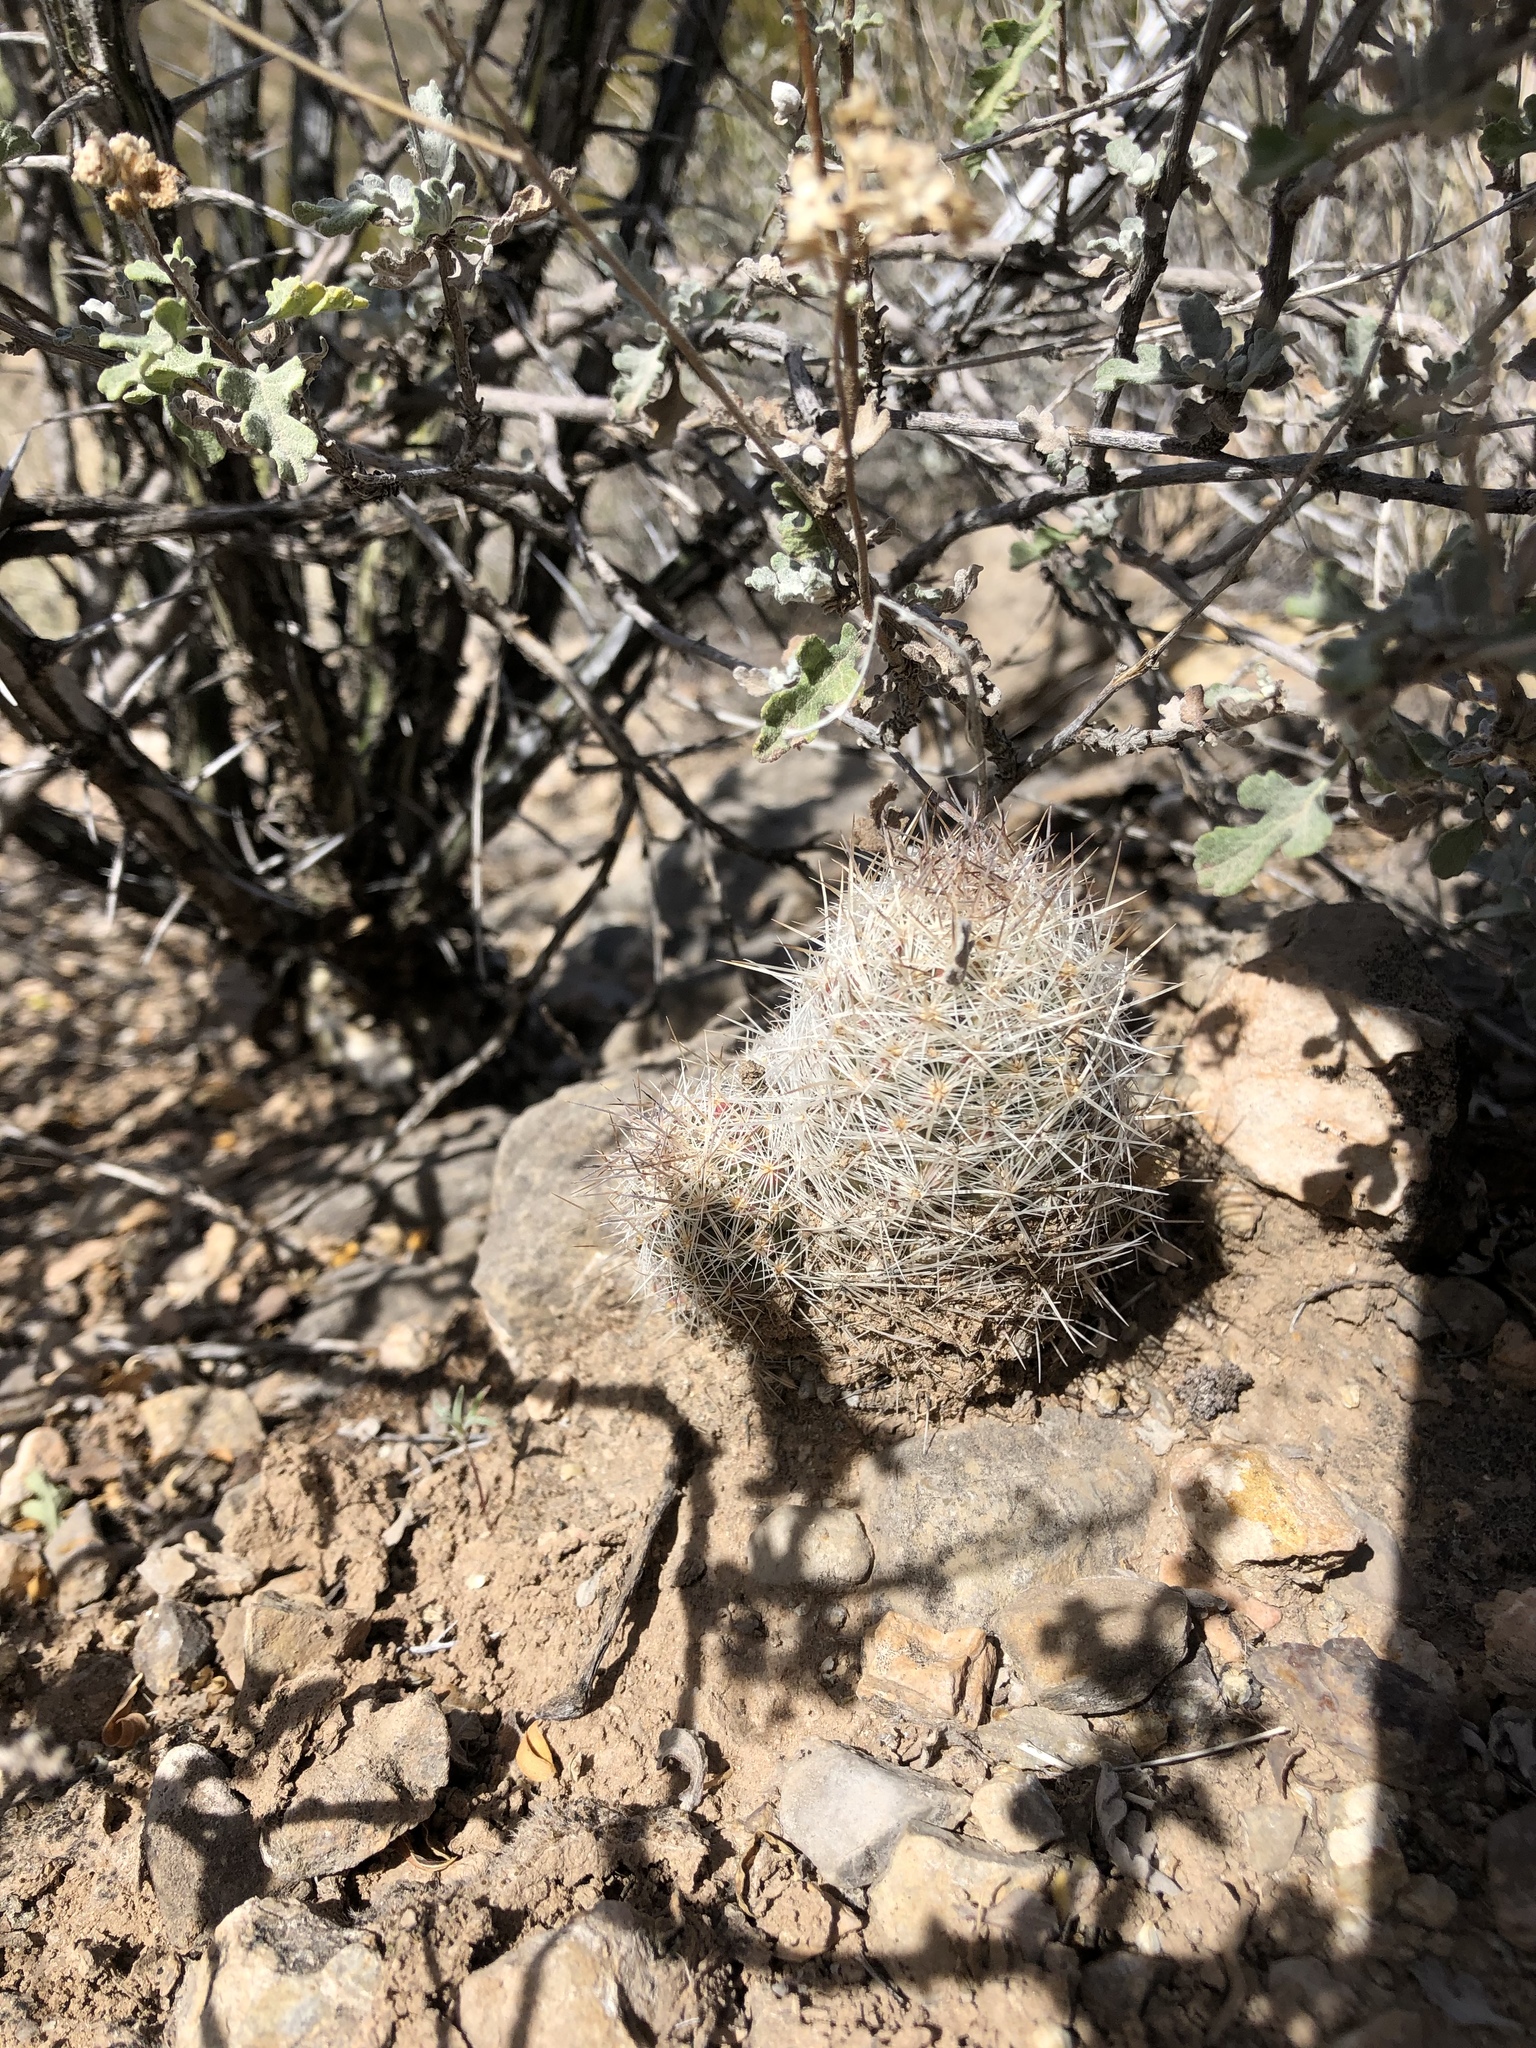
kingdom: Plantae
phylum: Tracheophyta
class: Magnoliopsida
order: Caryophyllales
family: Cactaceae
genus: Pelecyphora
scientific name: Pelecyphora tuberculosa
